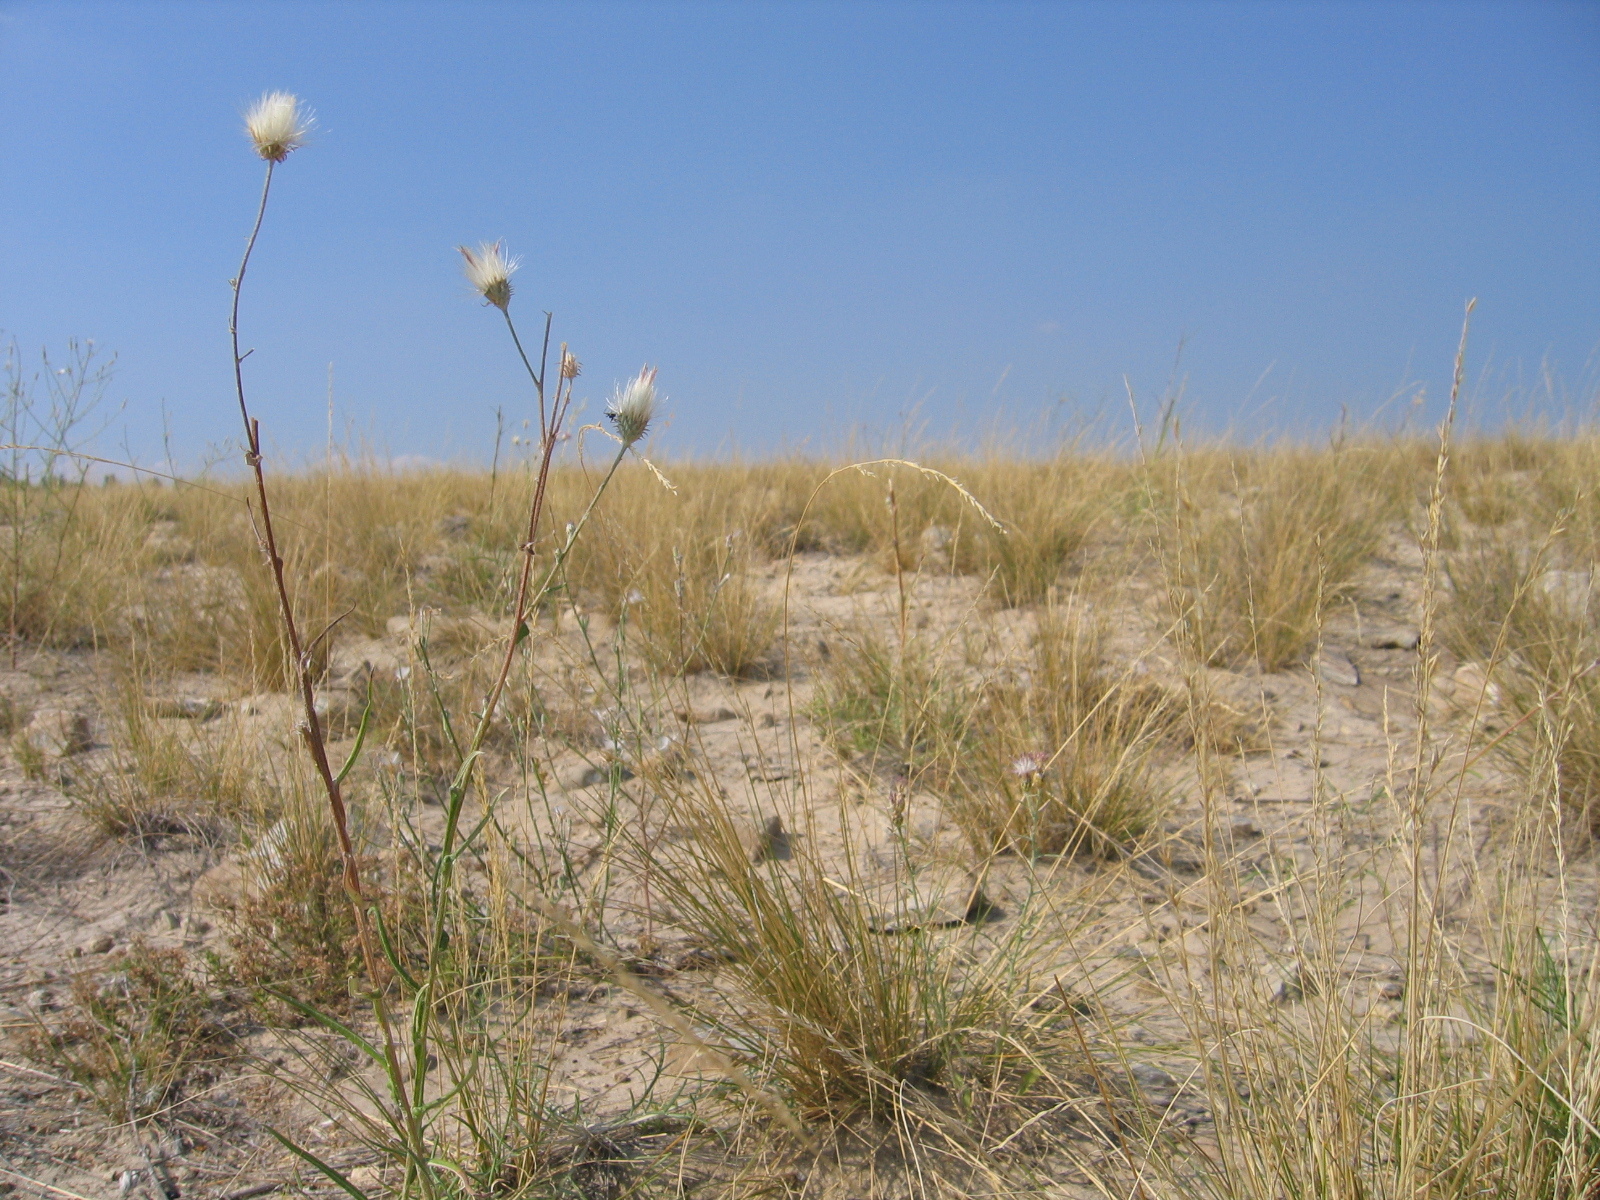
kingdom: Plantae
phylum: Tracheophyta
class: Magnoliopsida
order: Asterales
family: Asteraceae
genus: Jurinea
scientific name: Jurinea polyclonos
